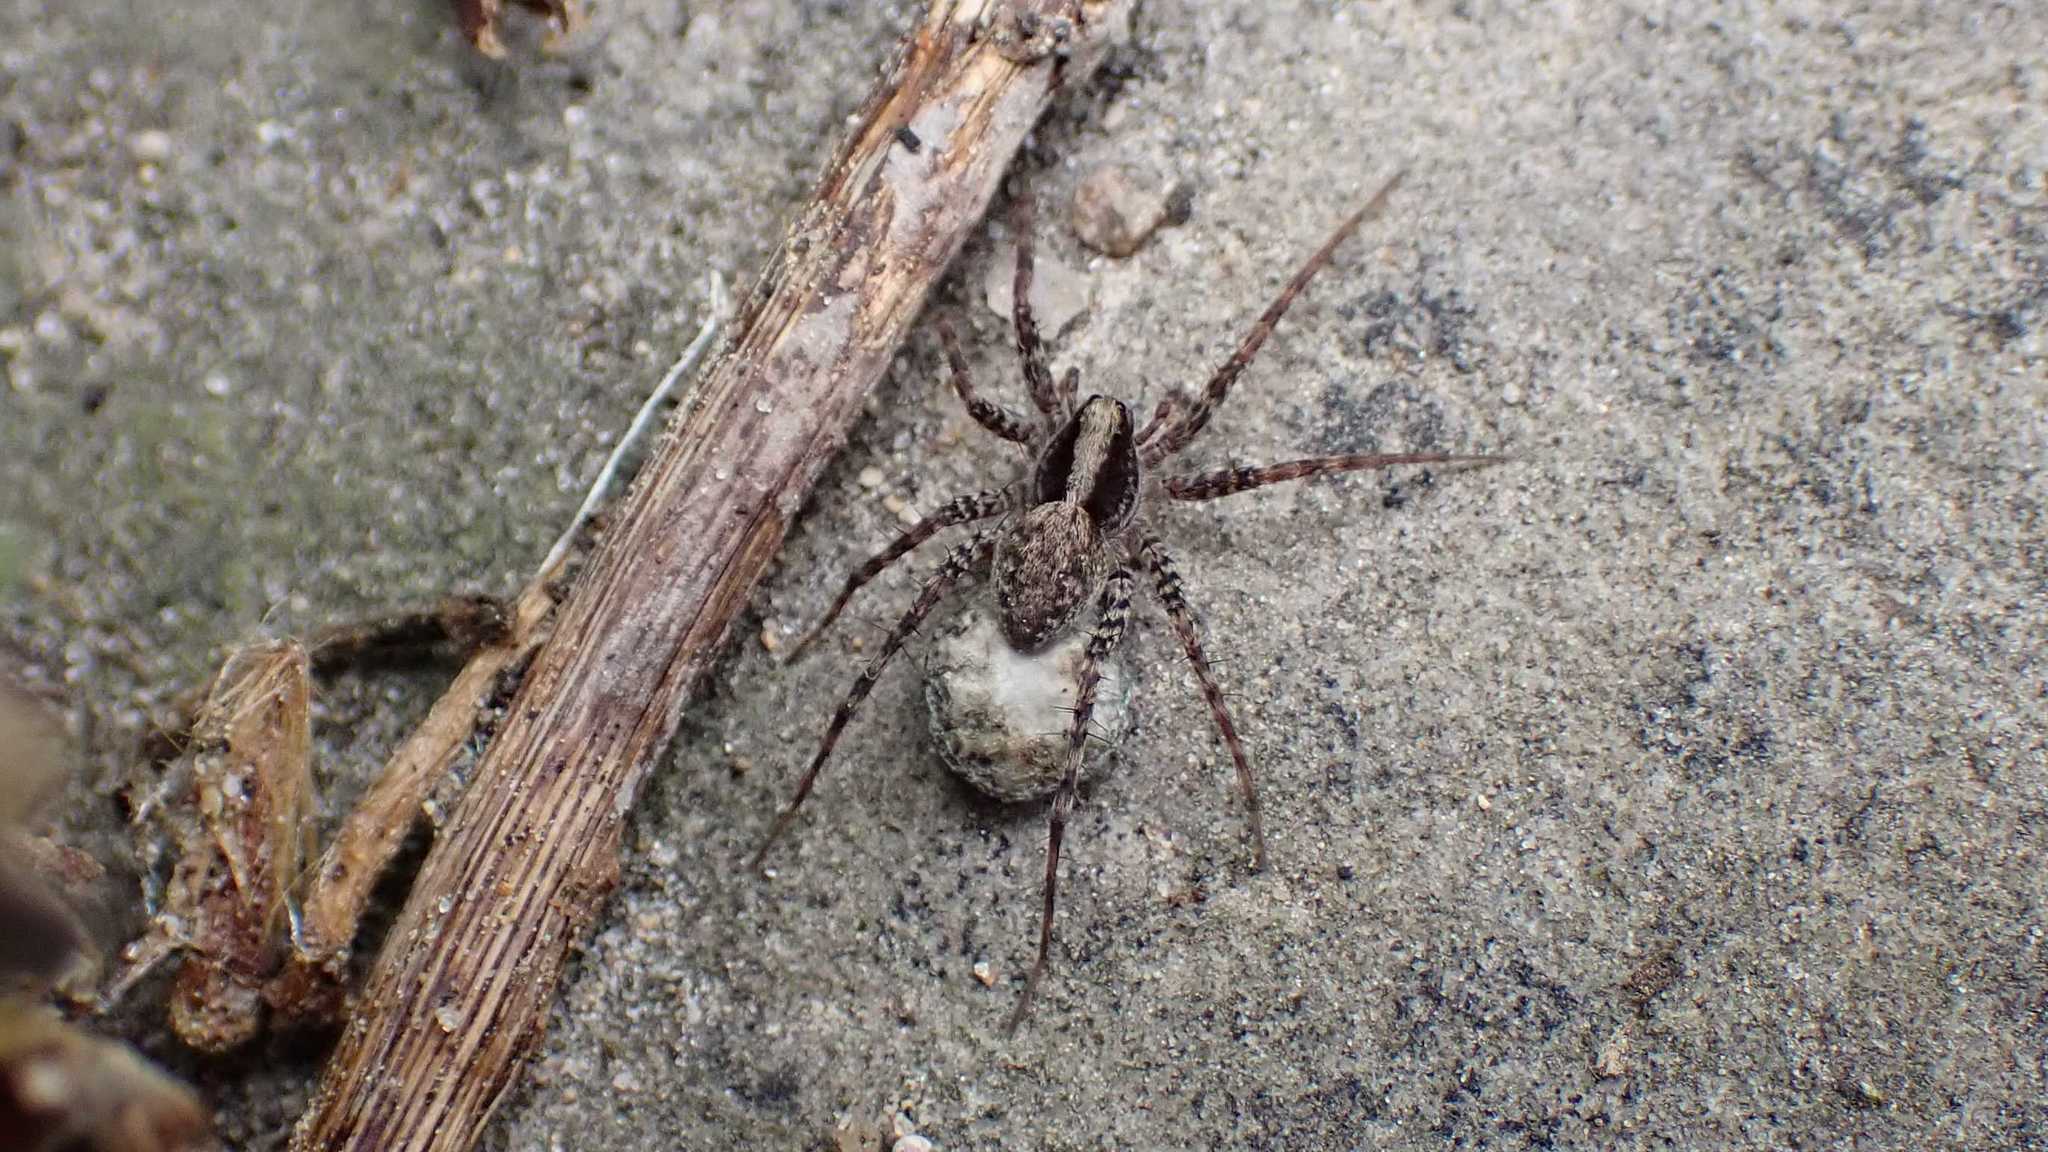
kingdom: Animalia
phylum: Arthropoda
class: Arachnida
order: Araneae
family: Lycosidae
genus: Pardosa
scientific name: Pardosa
